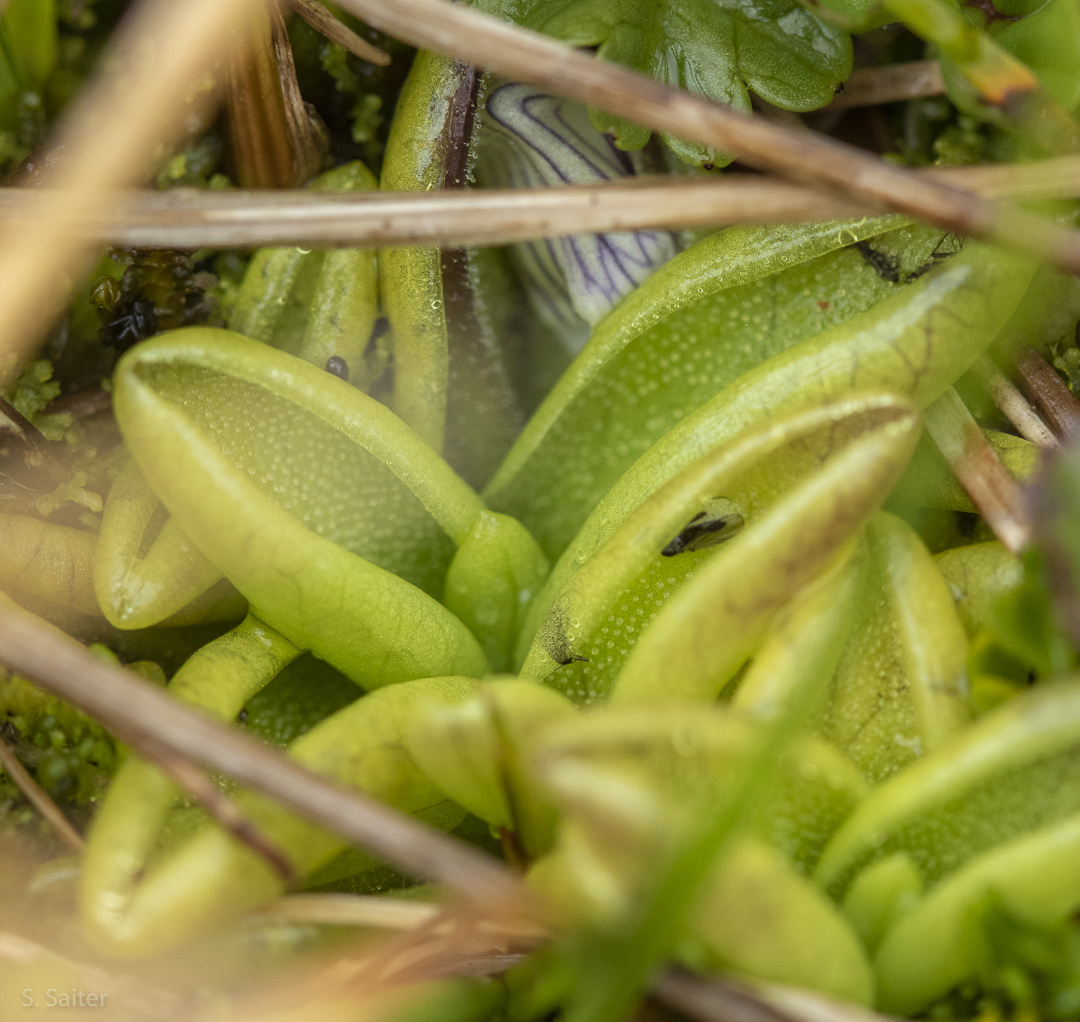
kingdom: Plantae
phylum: Tracheophyta
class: Magnoliopsida
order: Lamiales
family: Lentibulariaceae
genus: Pinguicula
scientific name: Pinguicula antarctica
